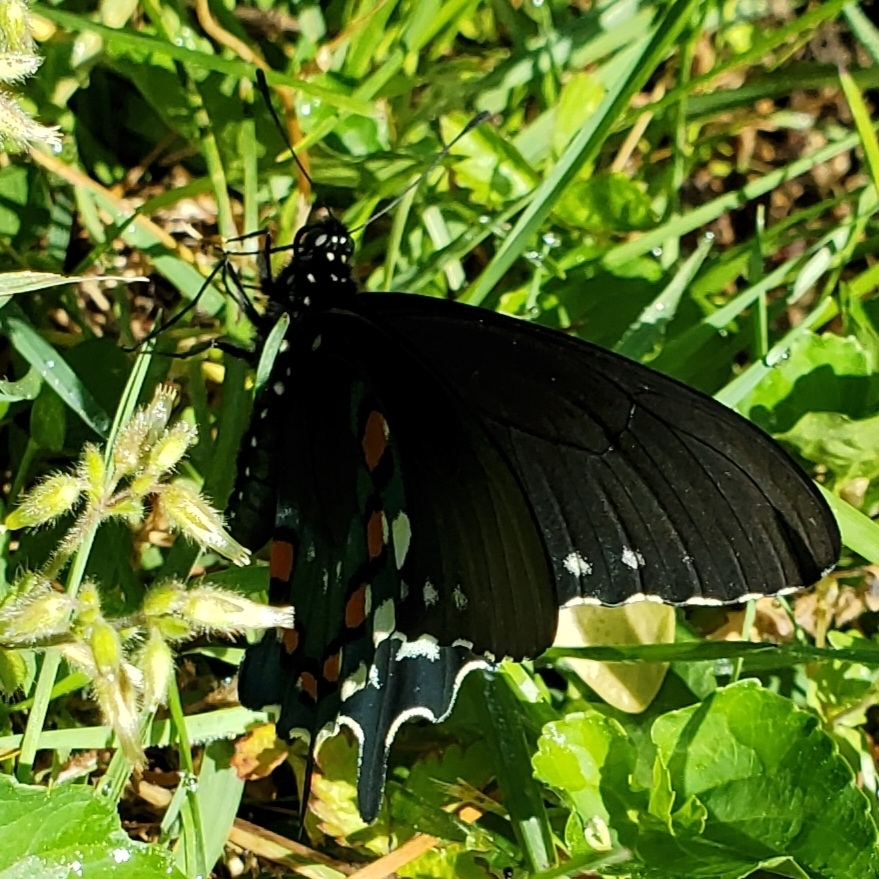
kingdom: Animalia
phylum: Arthropoda
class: Insecta
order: Lepidoptera
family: Papilionidae
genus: Battus
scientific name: Battus philenor
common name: Pipevine swallowtail
